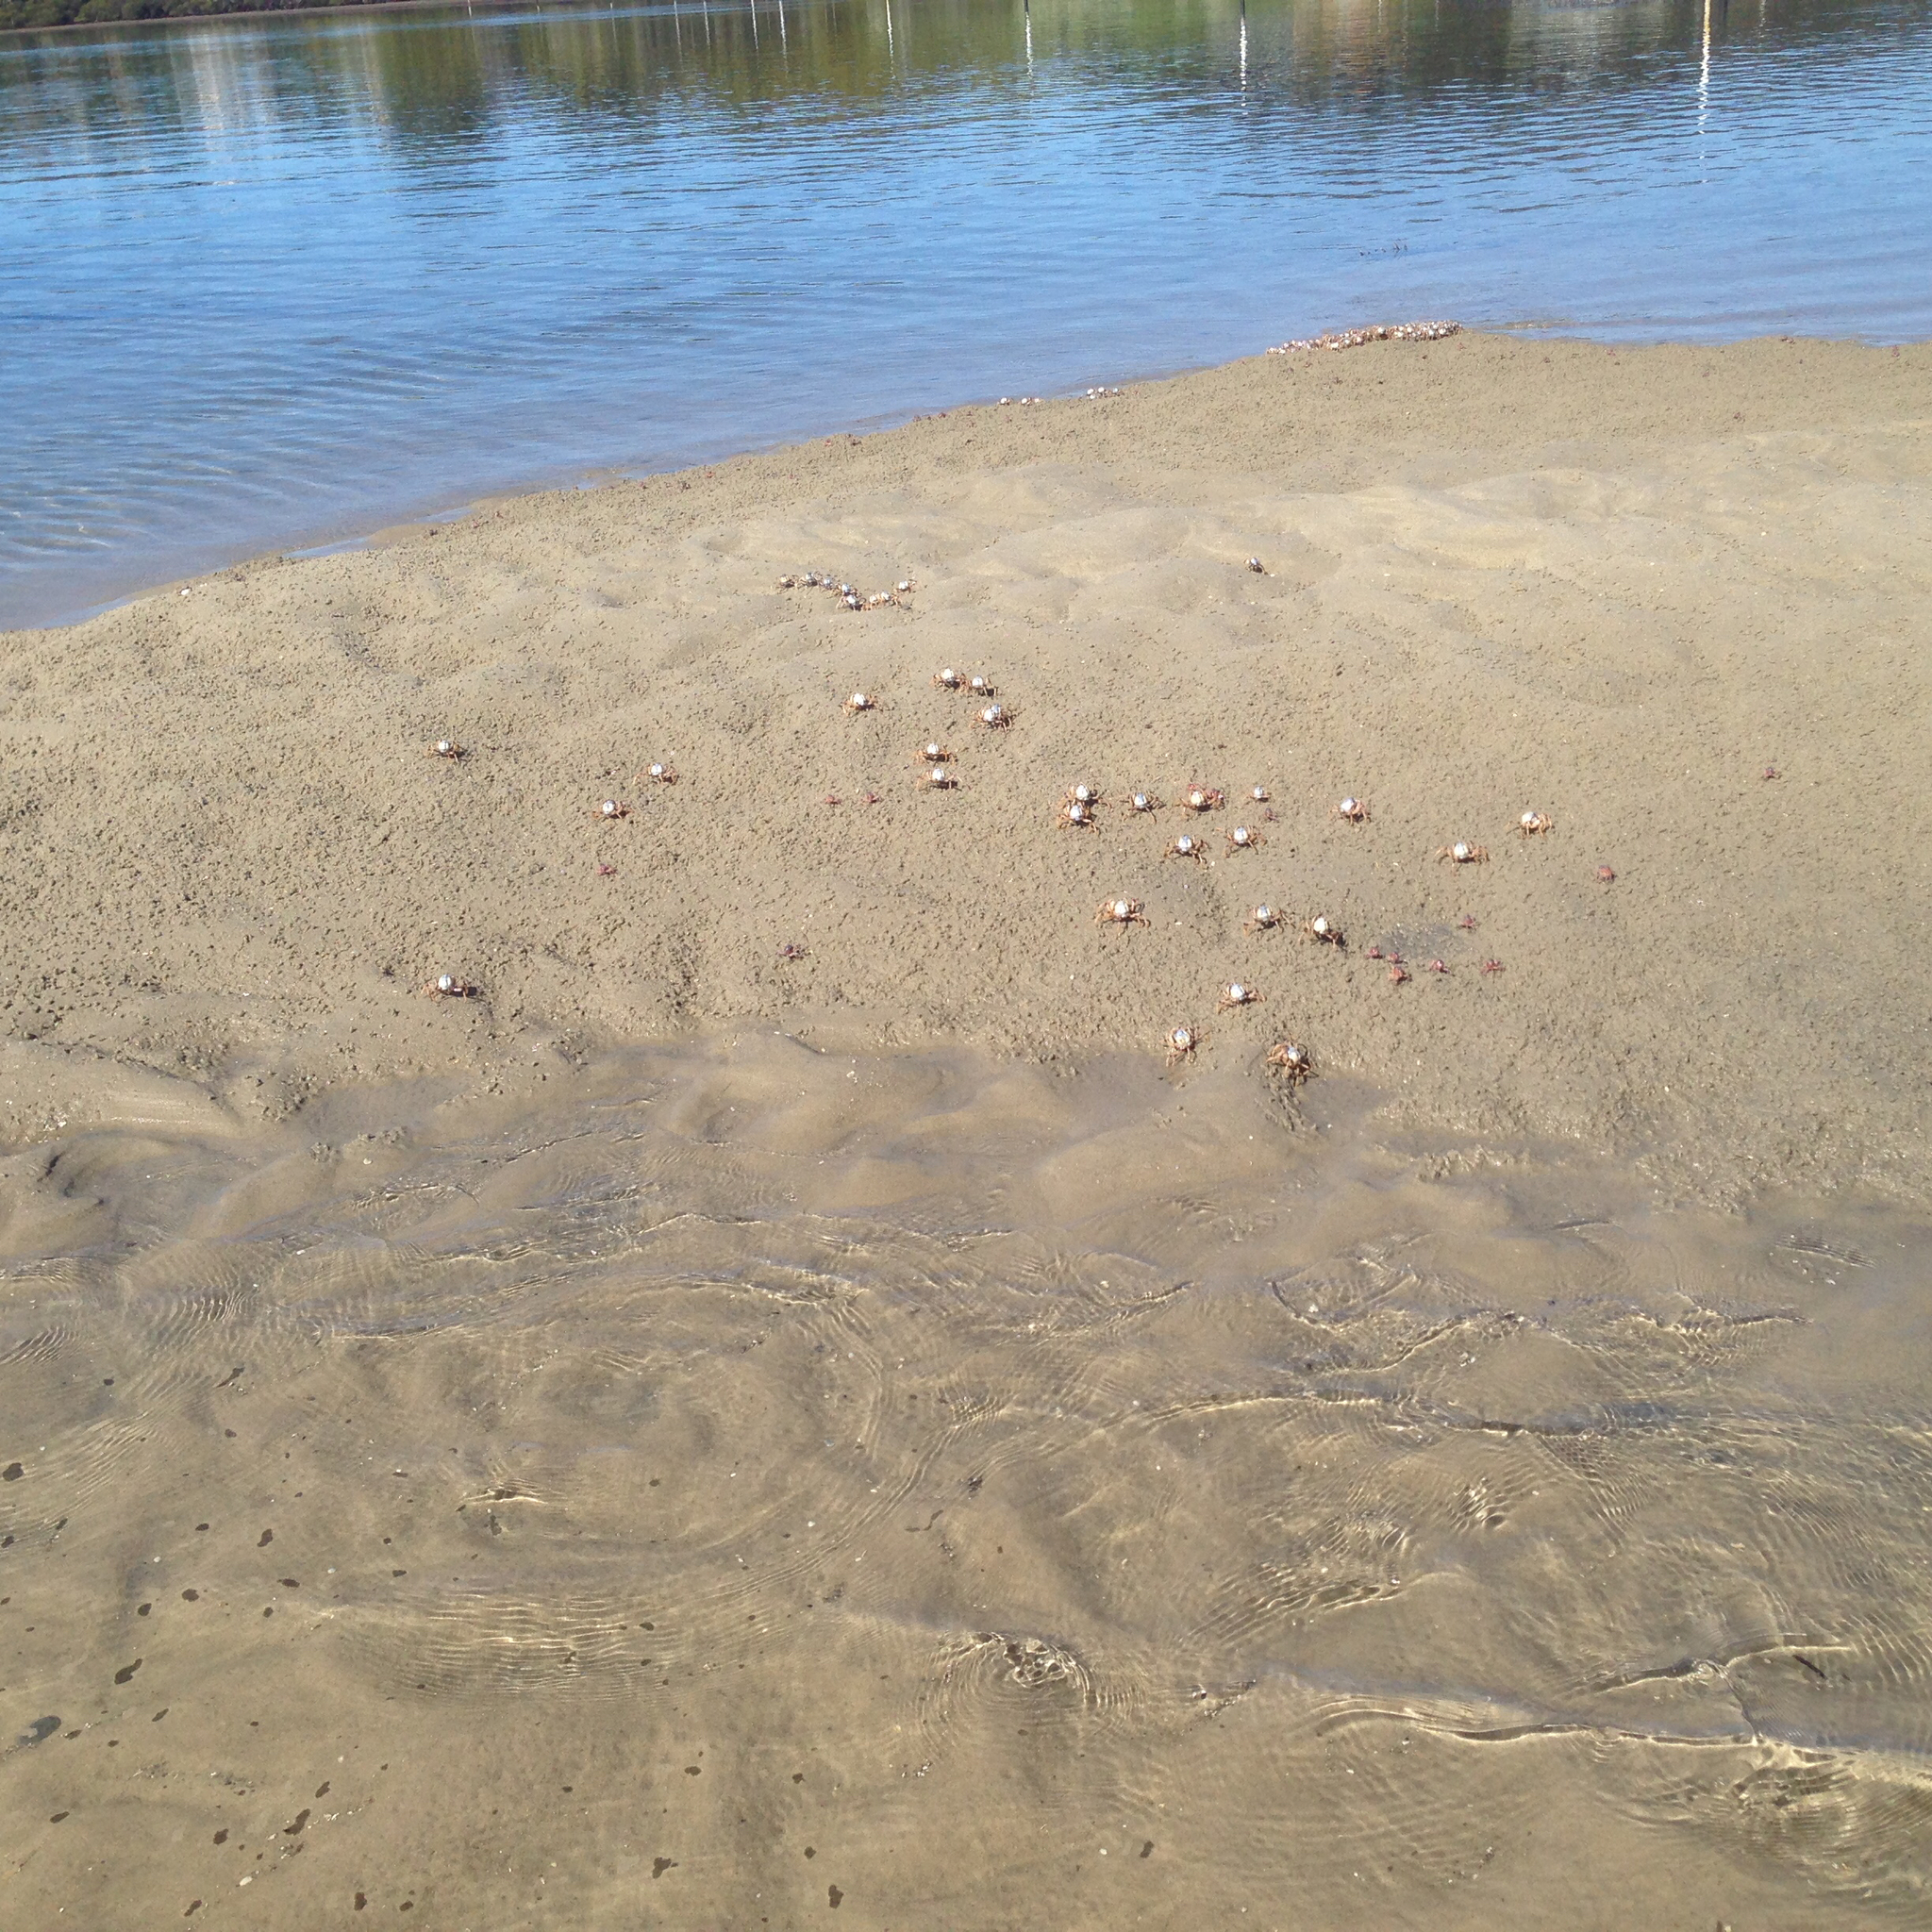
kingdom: Animalia
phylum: Arthropoda
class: Malacostraca
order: Decapoda
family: Mictyridae
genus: Mictyris
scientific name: Mictyris longicarpus
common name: Light-blue soldier crab
